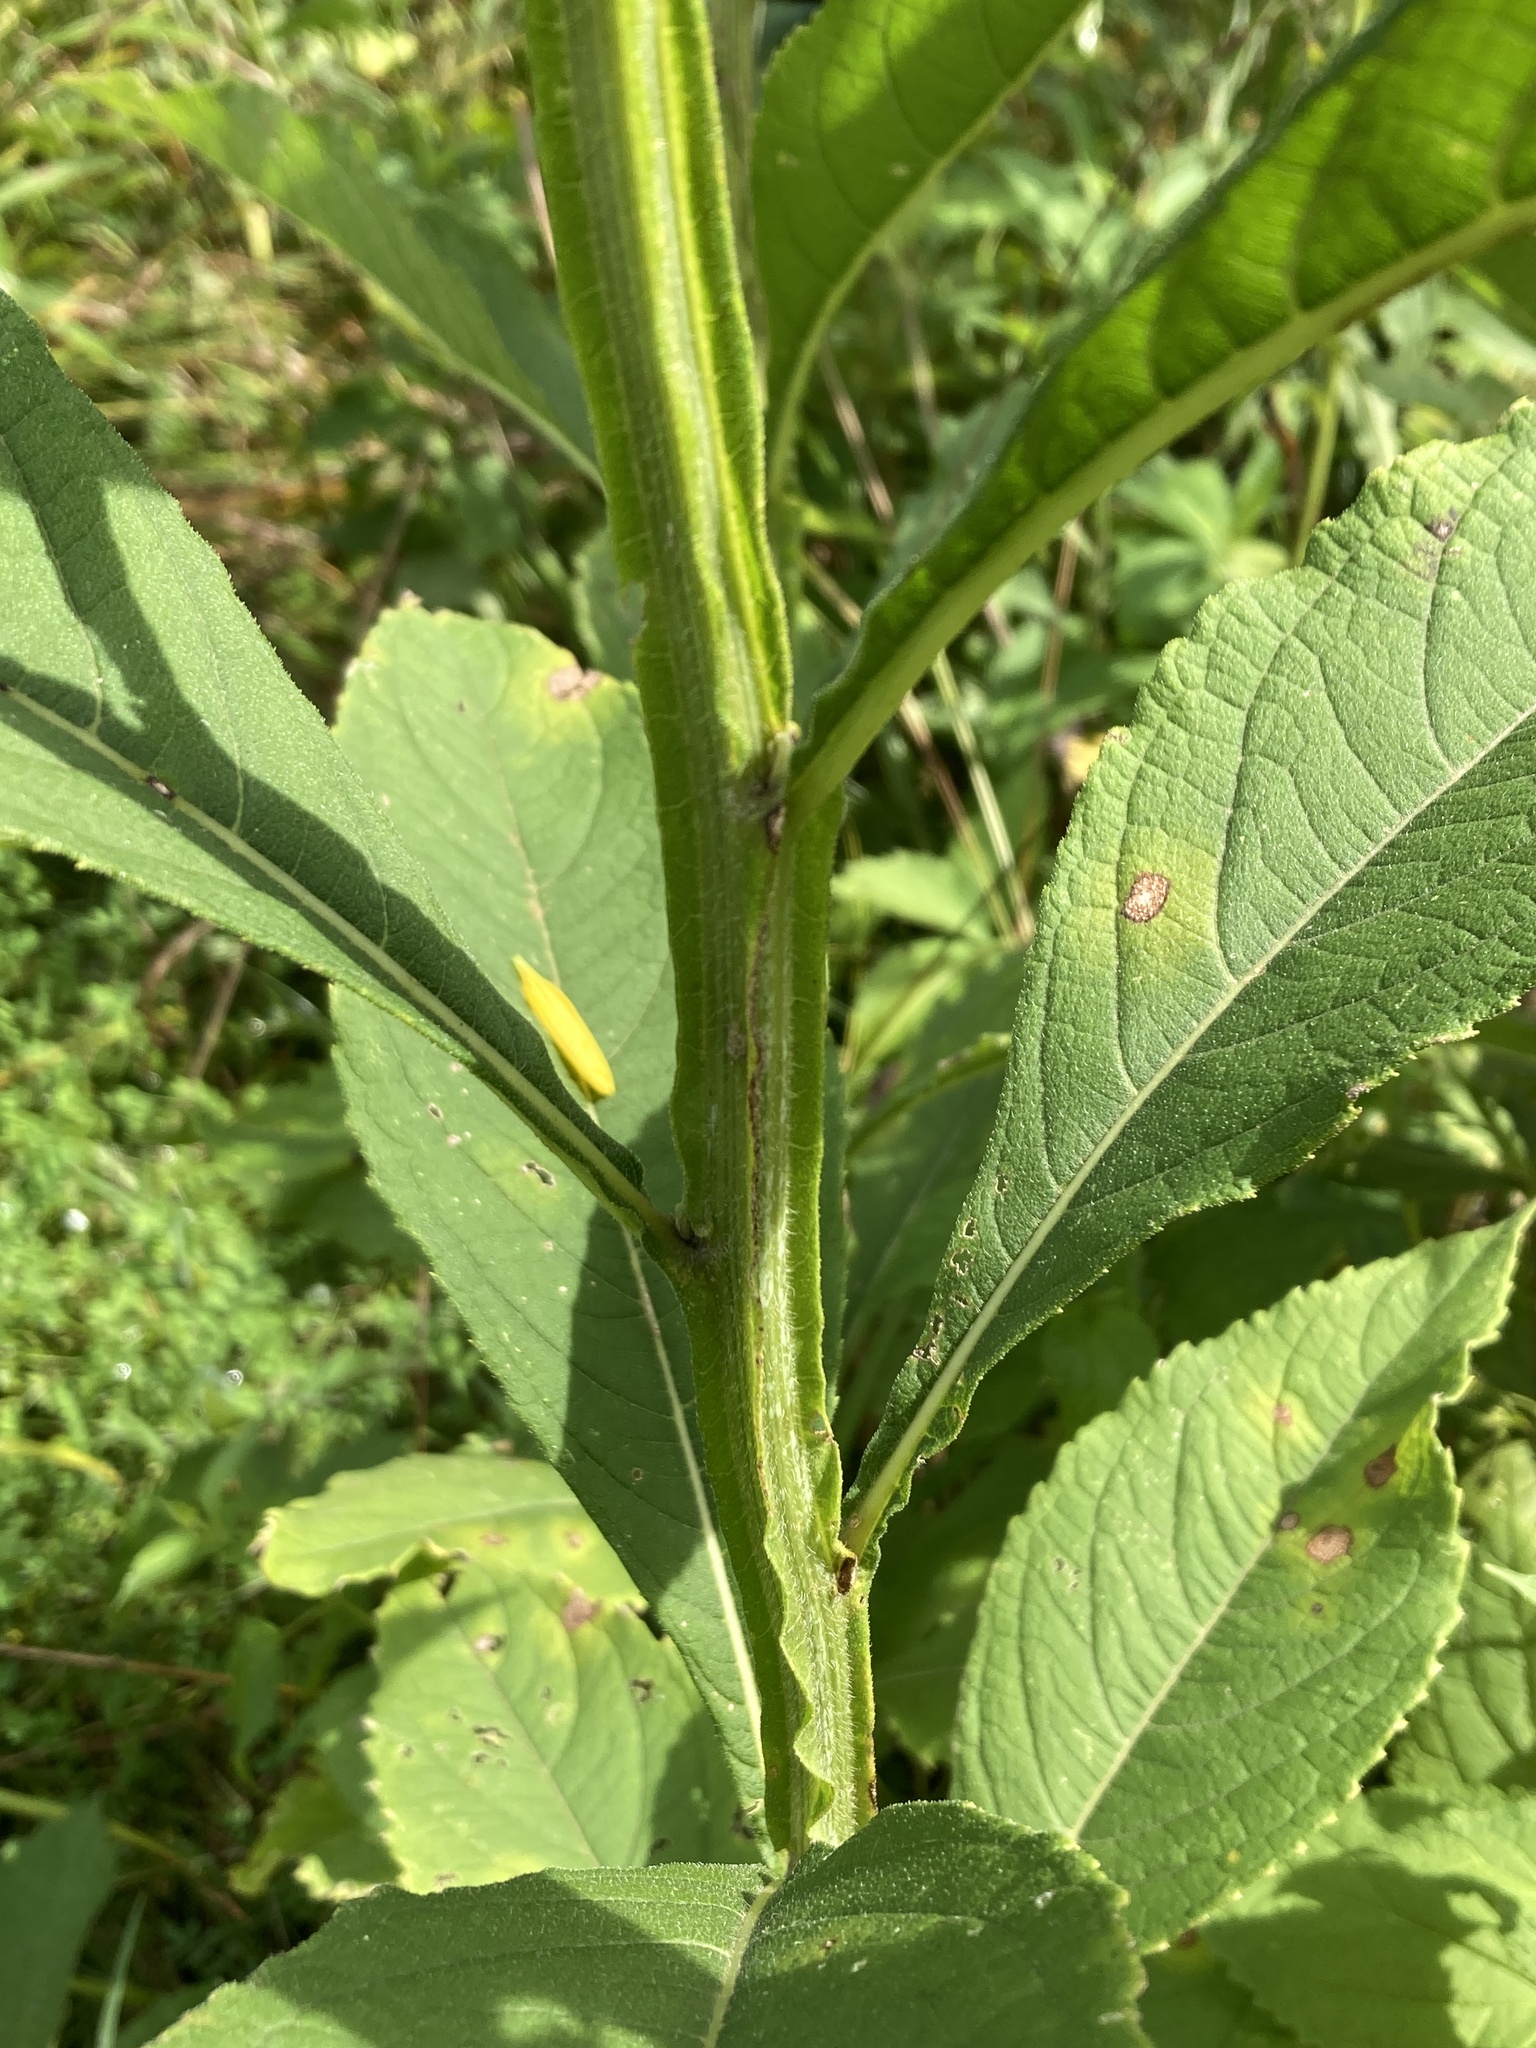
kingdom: Plantae
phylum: Tracheophyta
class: Magnoliopsida
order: Asterales
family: Asteraceae
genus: Verbesina
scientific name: Verbesina alternifolia
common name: Wingstem
